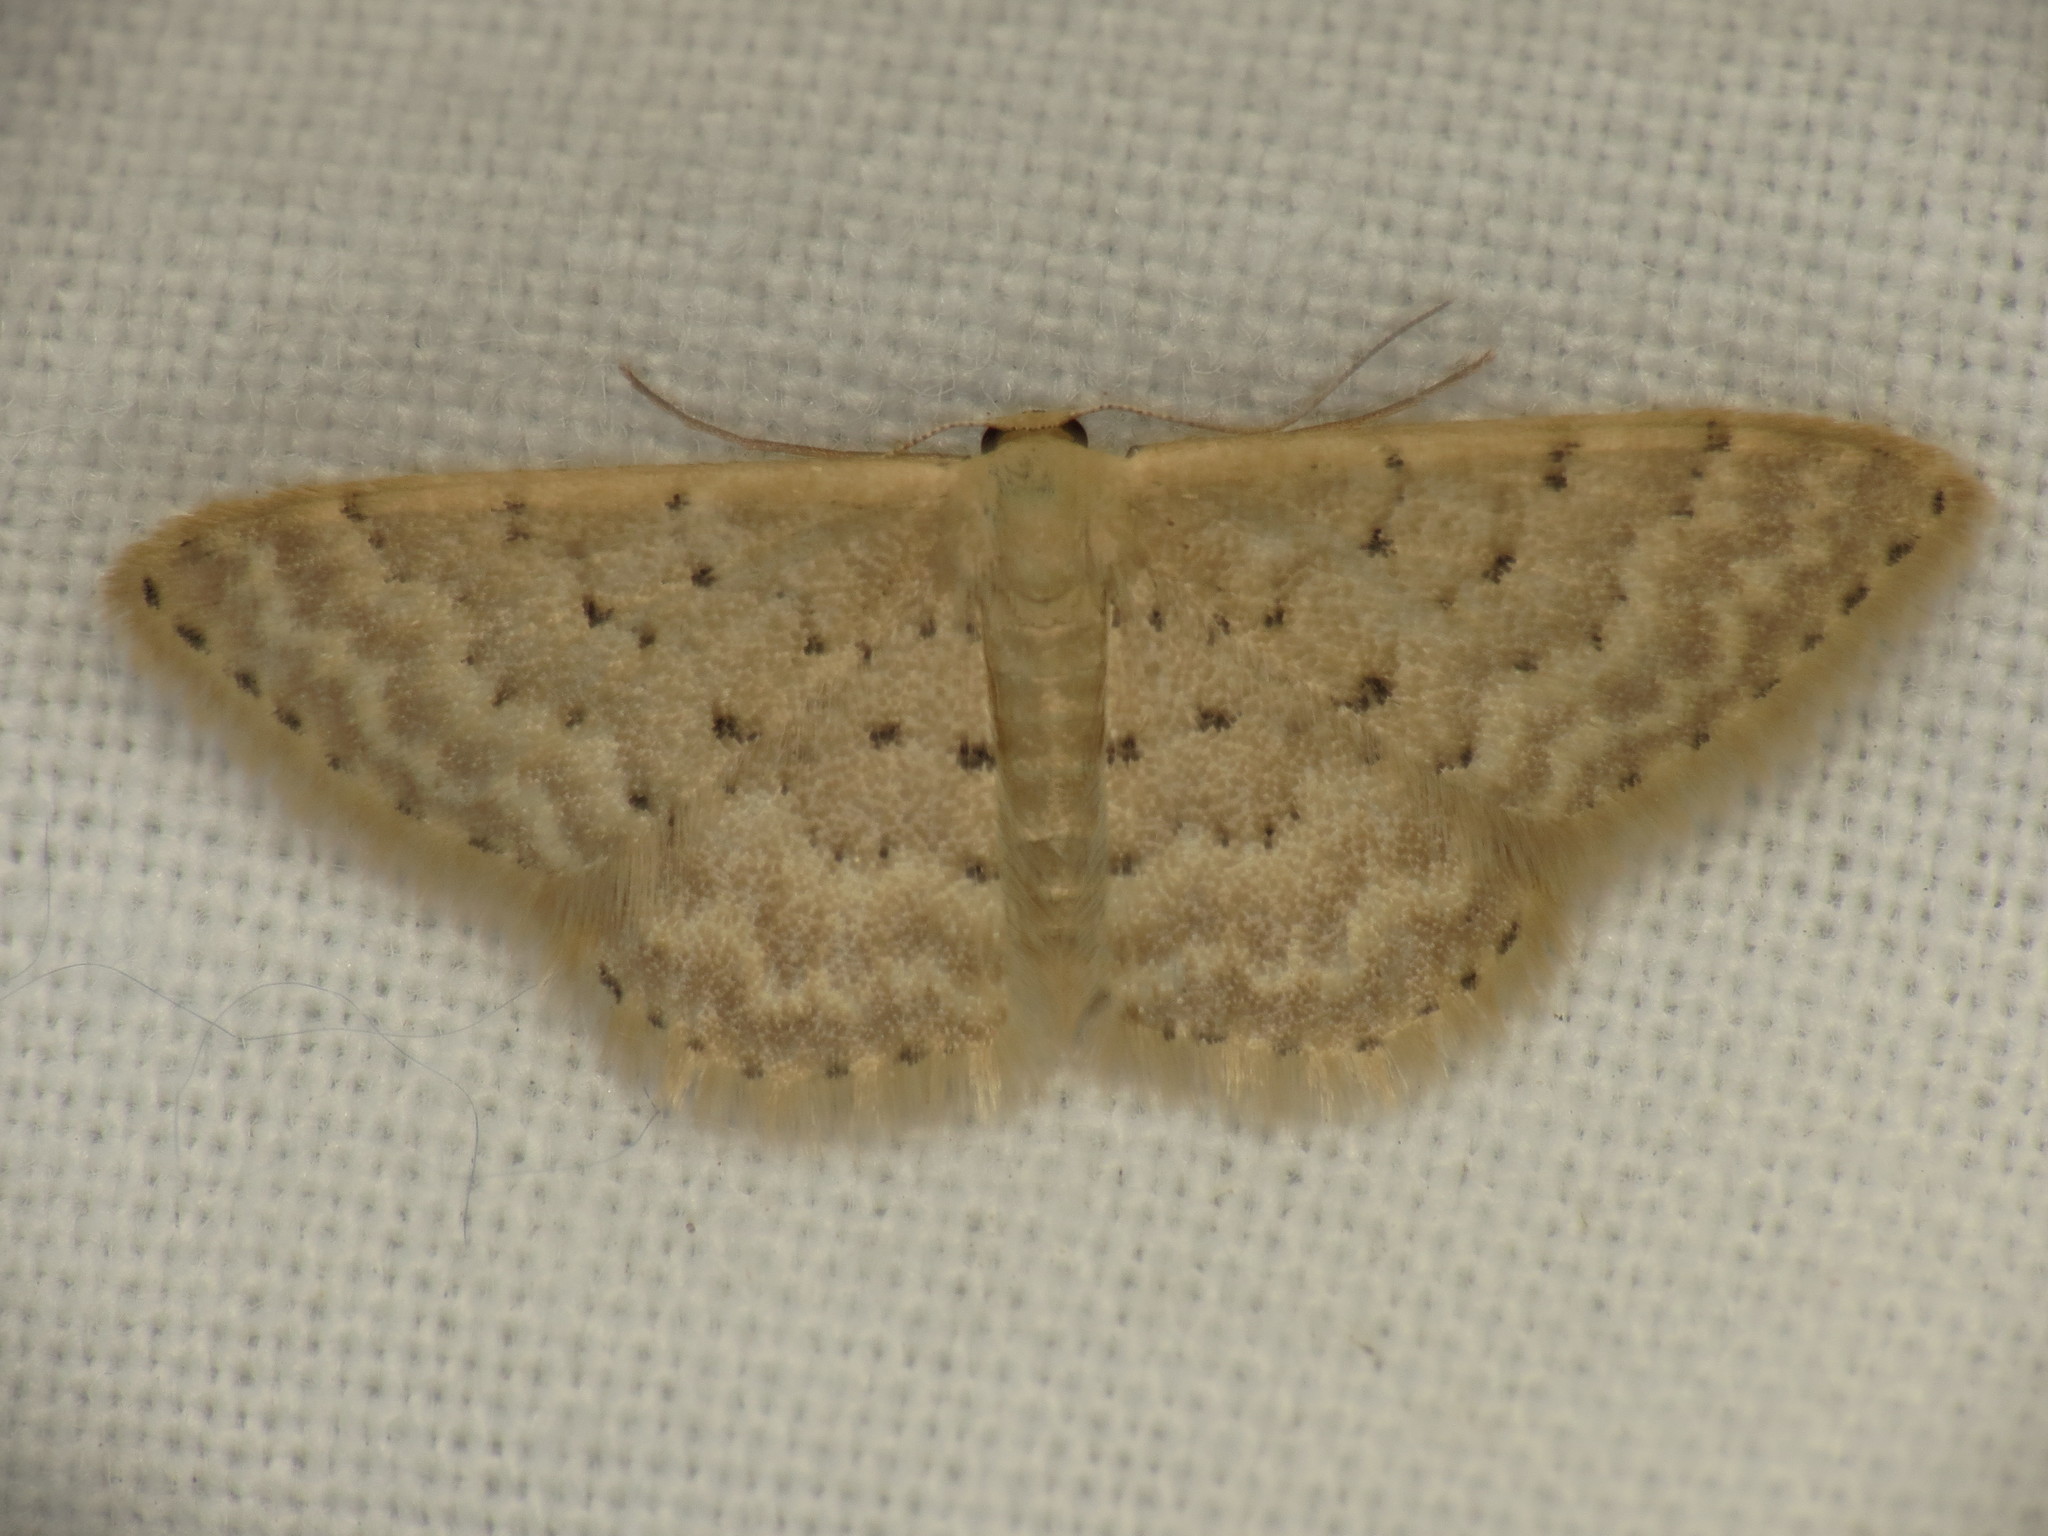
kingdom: Animalia
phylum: Arthropoda
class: Insecta
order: Lepidoptera
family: Geometridae
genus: Idaea
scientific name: Idaea philocosma
